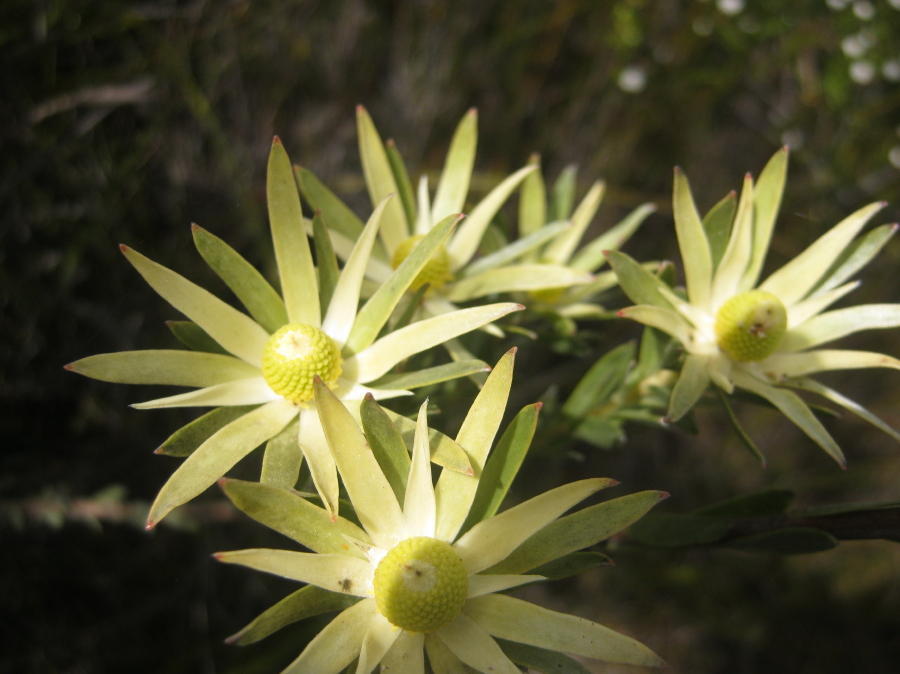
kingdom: Plantae
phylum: Tracheophyta
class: Magnoliopsida
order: Proteales
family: Proteaceae
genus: Leucadendron
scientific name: Leucadendron uliginosum
